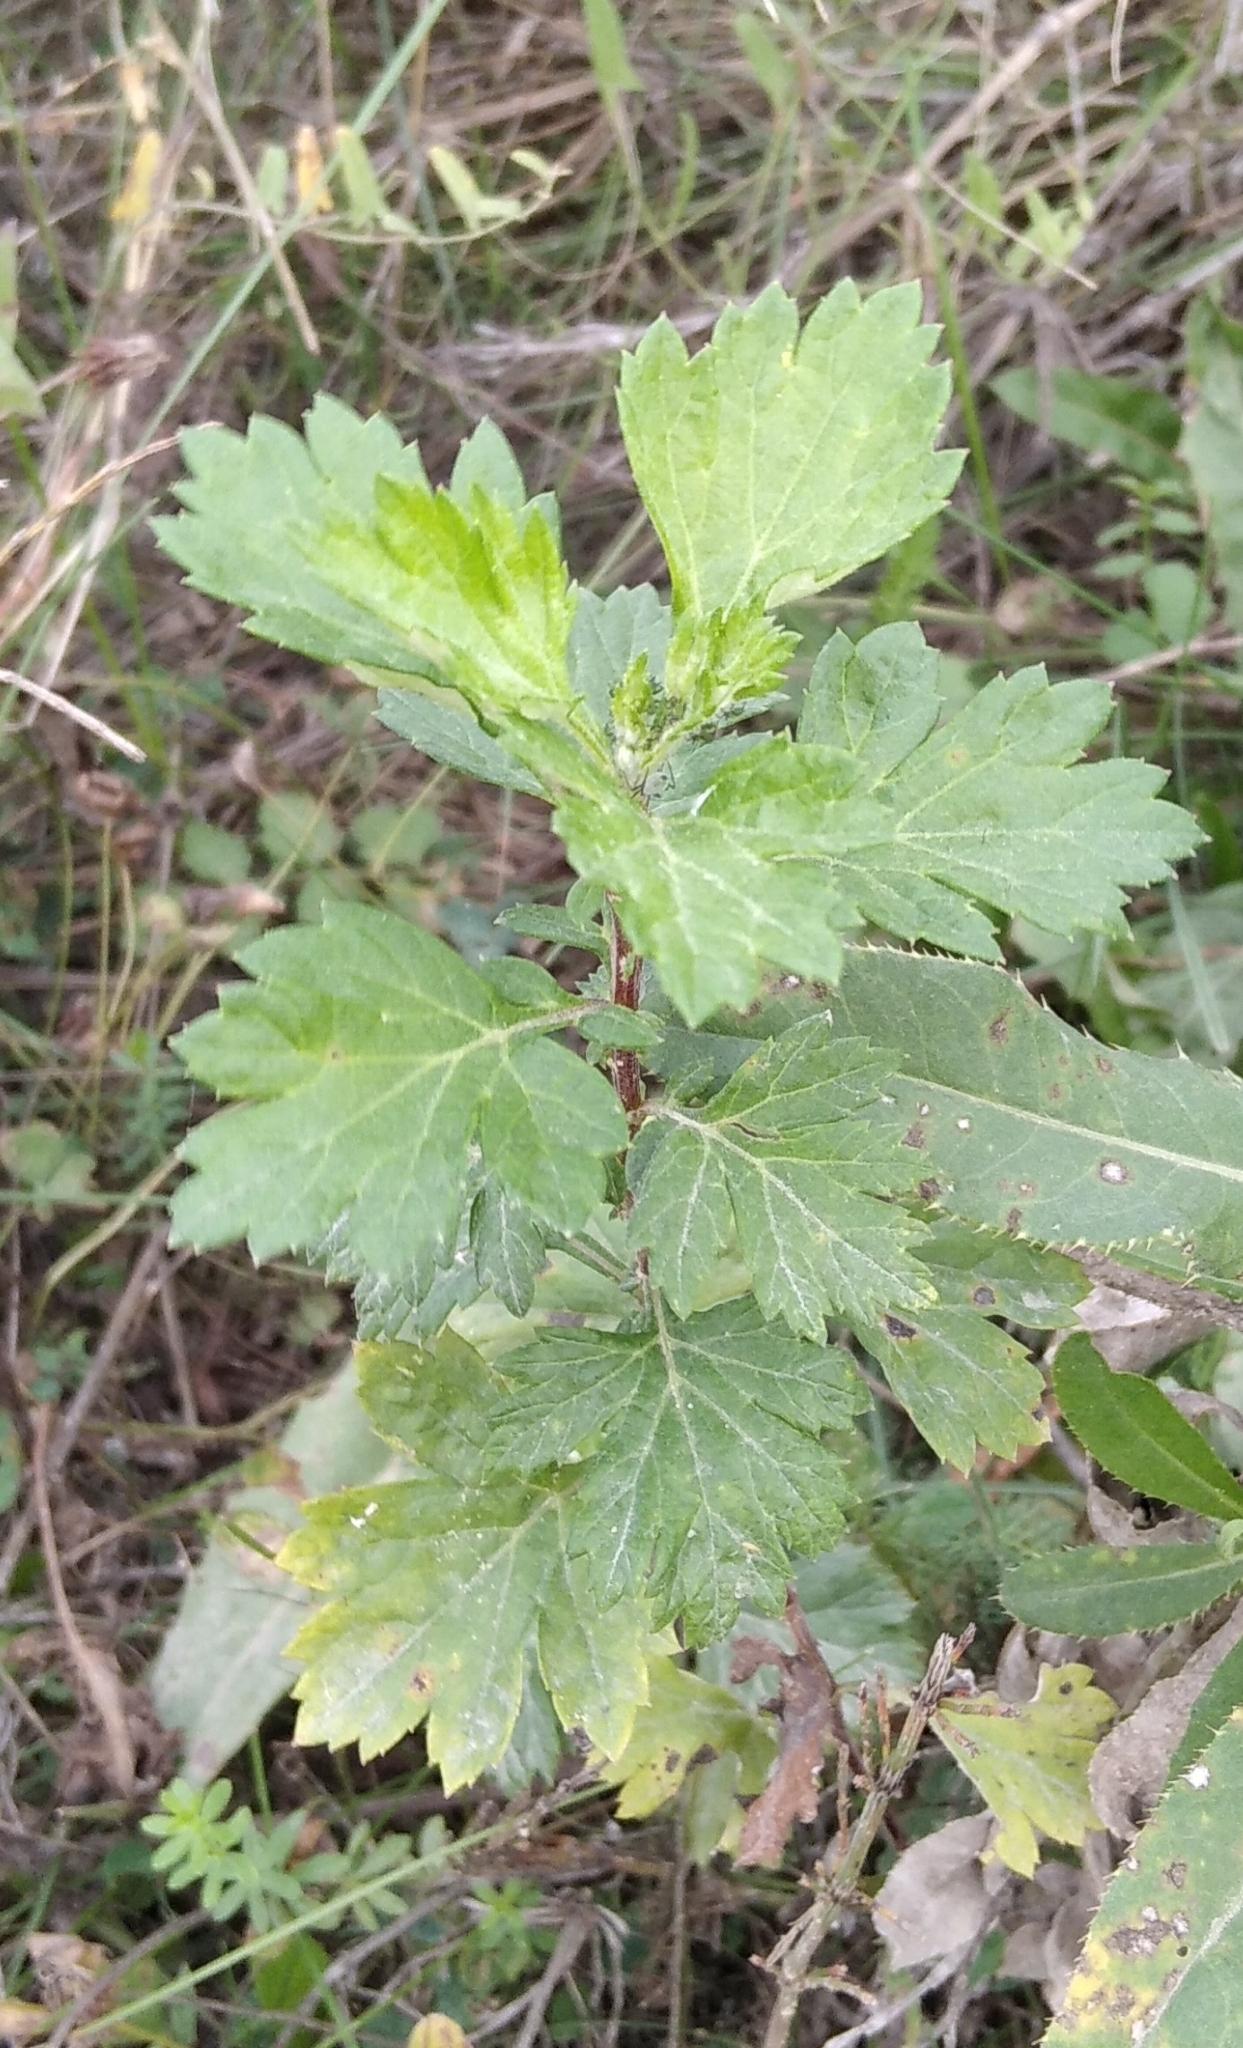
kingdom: Plantae
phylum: Tracheophyta
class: Magnoliopsida
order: Asterales
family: Asteraceae
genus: Artemisia
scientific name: Artemisia vulgaris
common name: Mugwort
